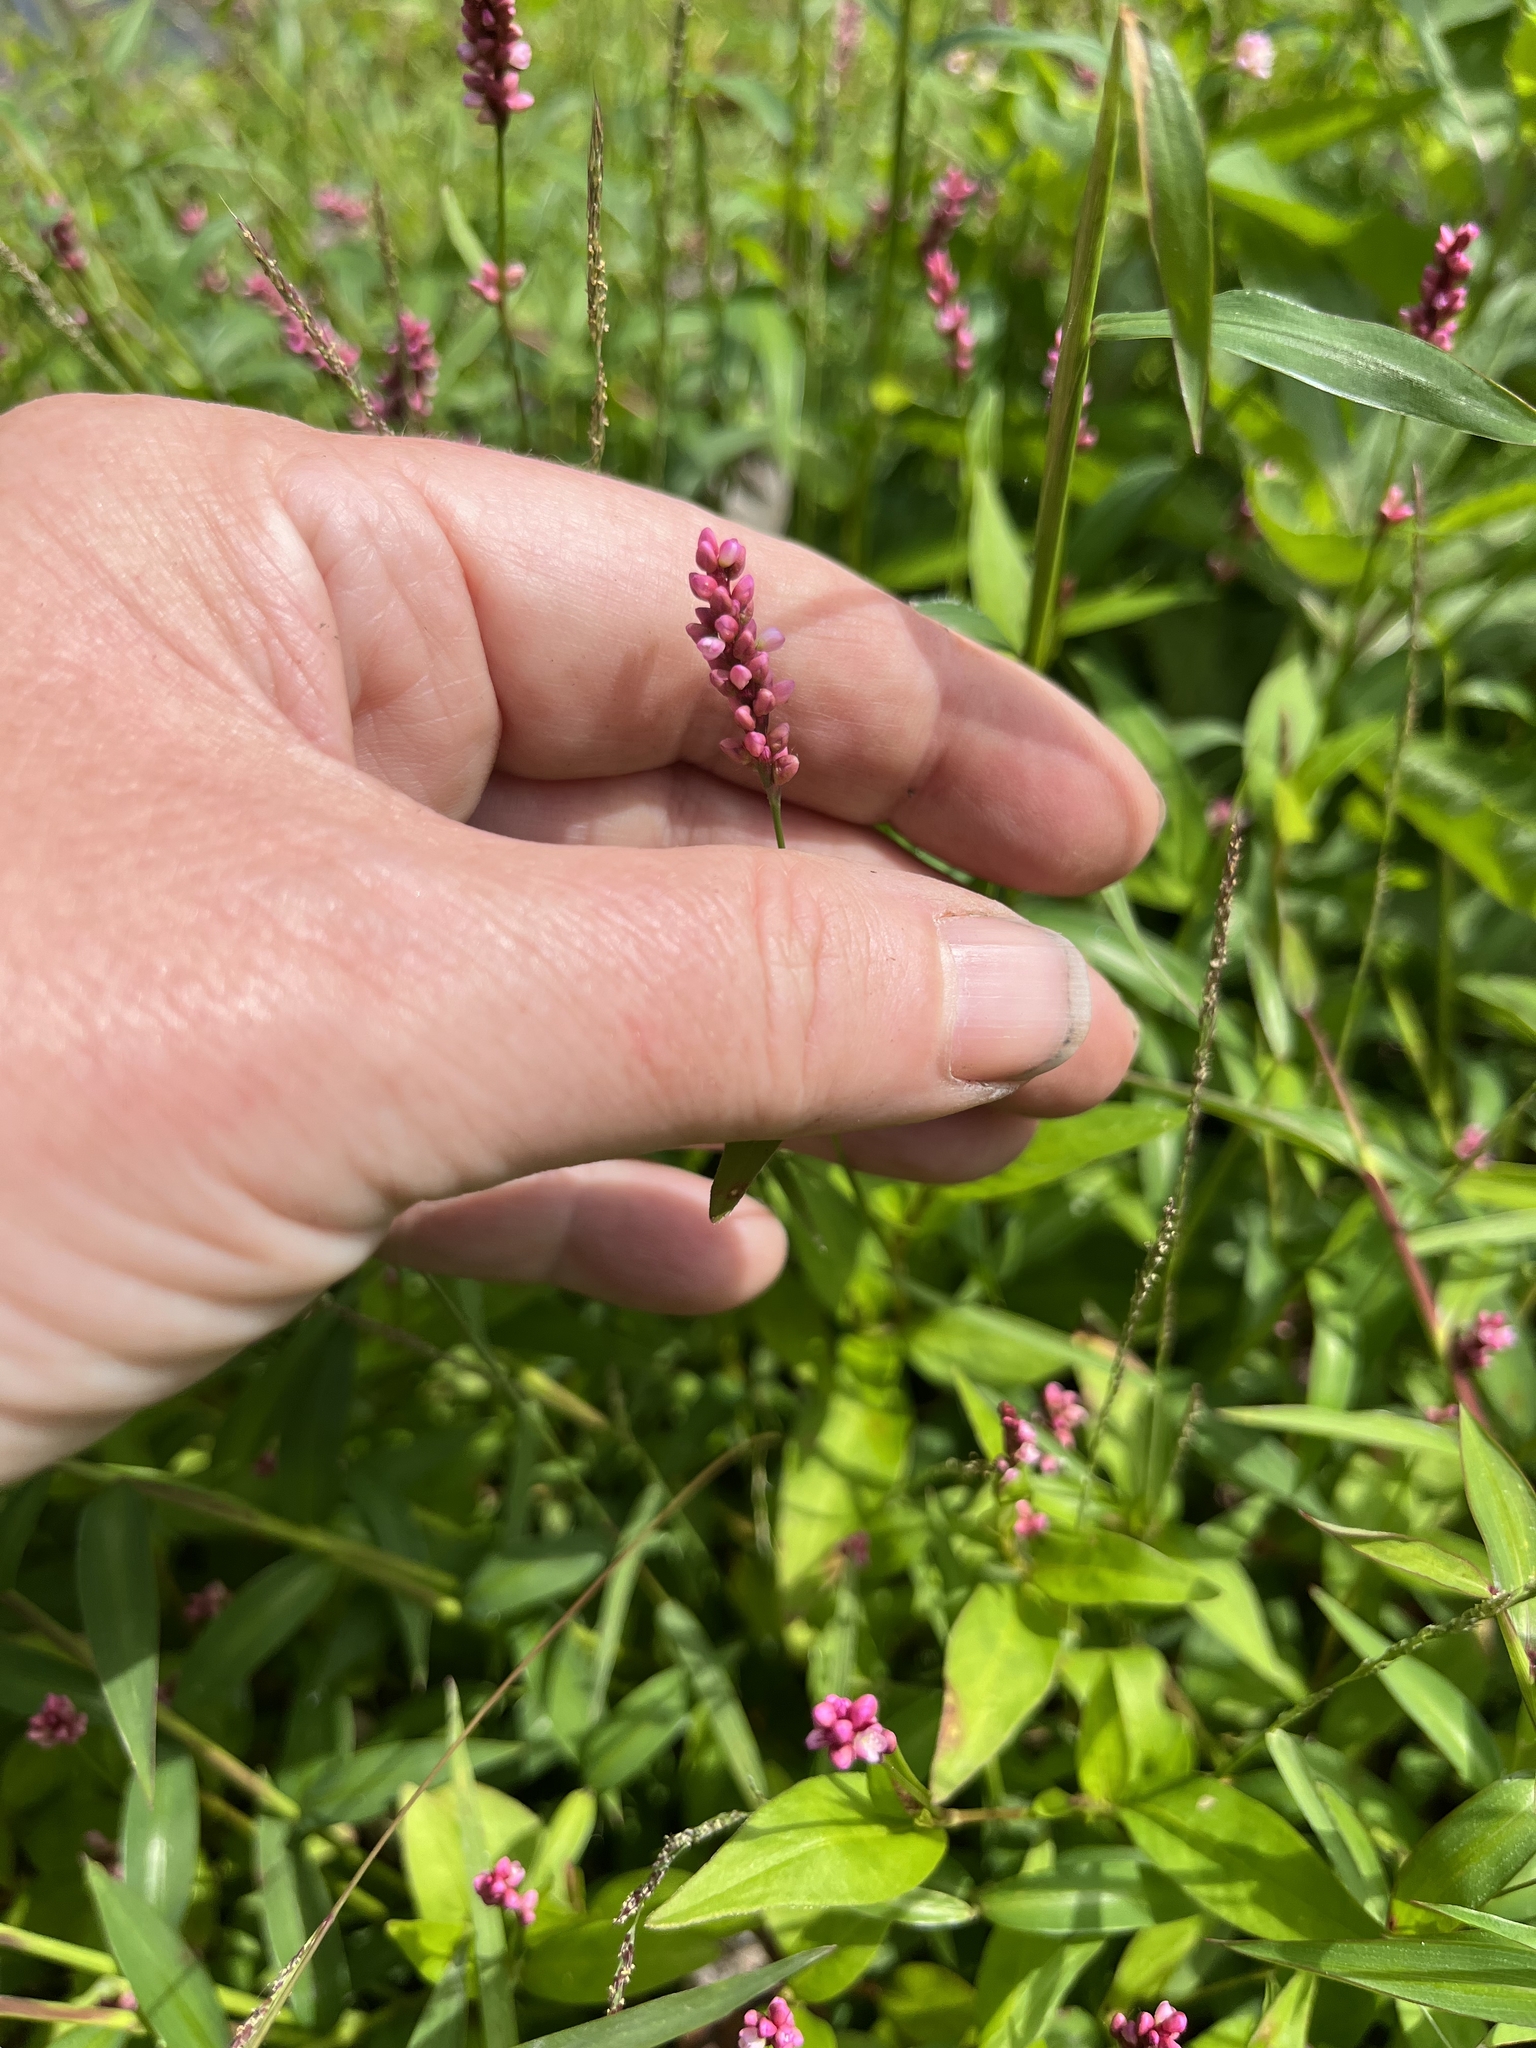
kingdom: Plantae
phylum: Tracheophyta
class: Magnoliopsida
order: Caryophyllales
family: Polygonaceae
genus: Persicaria
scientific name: Persicaria longiseta
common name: Bristly lady's-thumb
